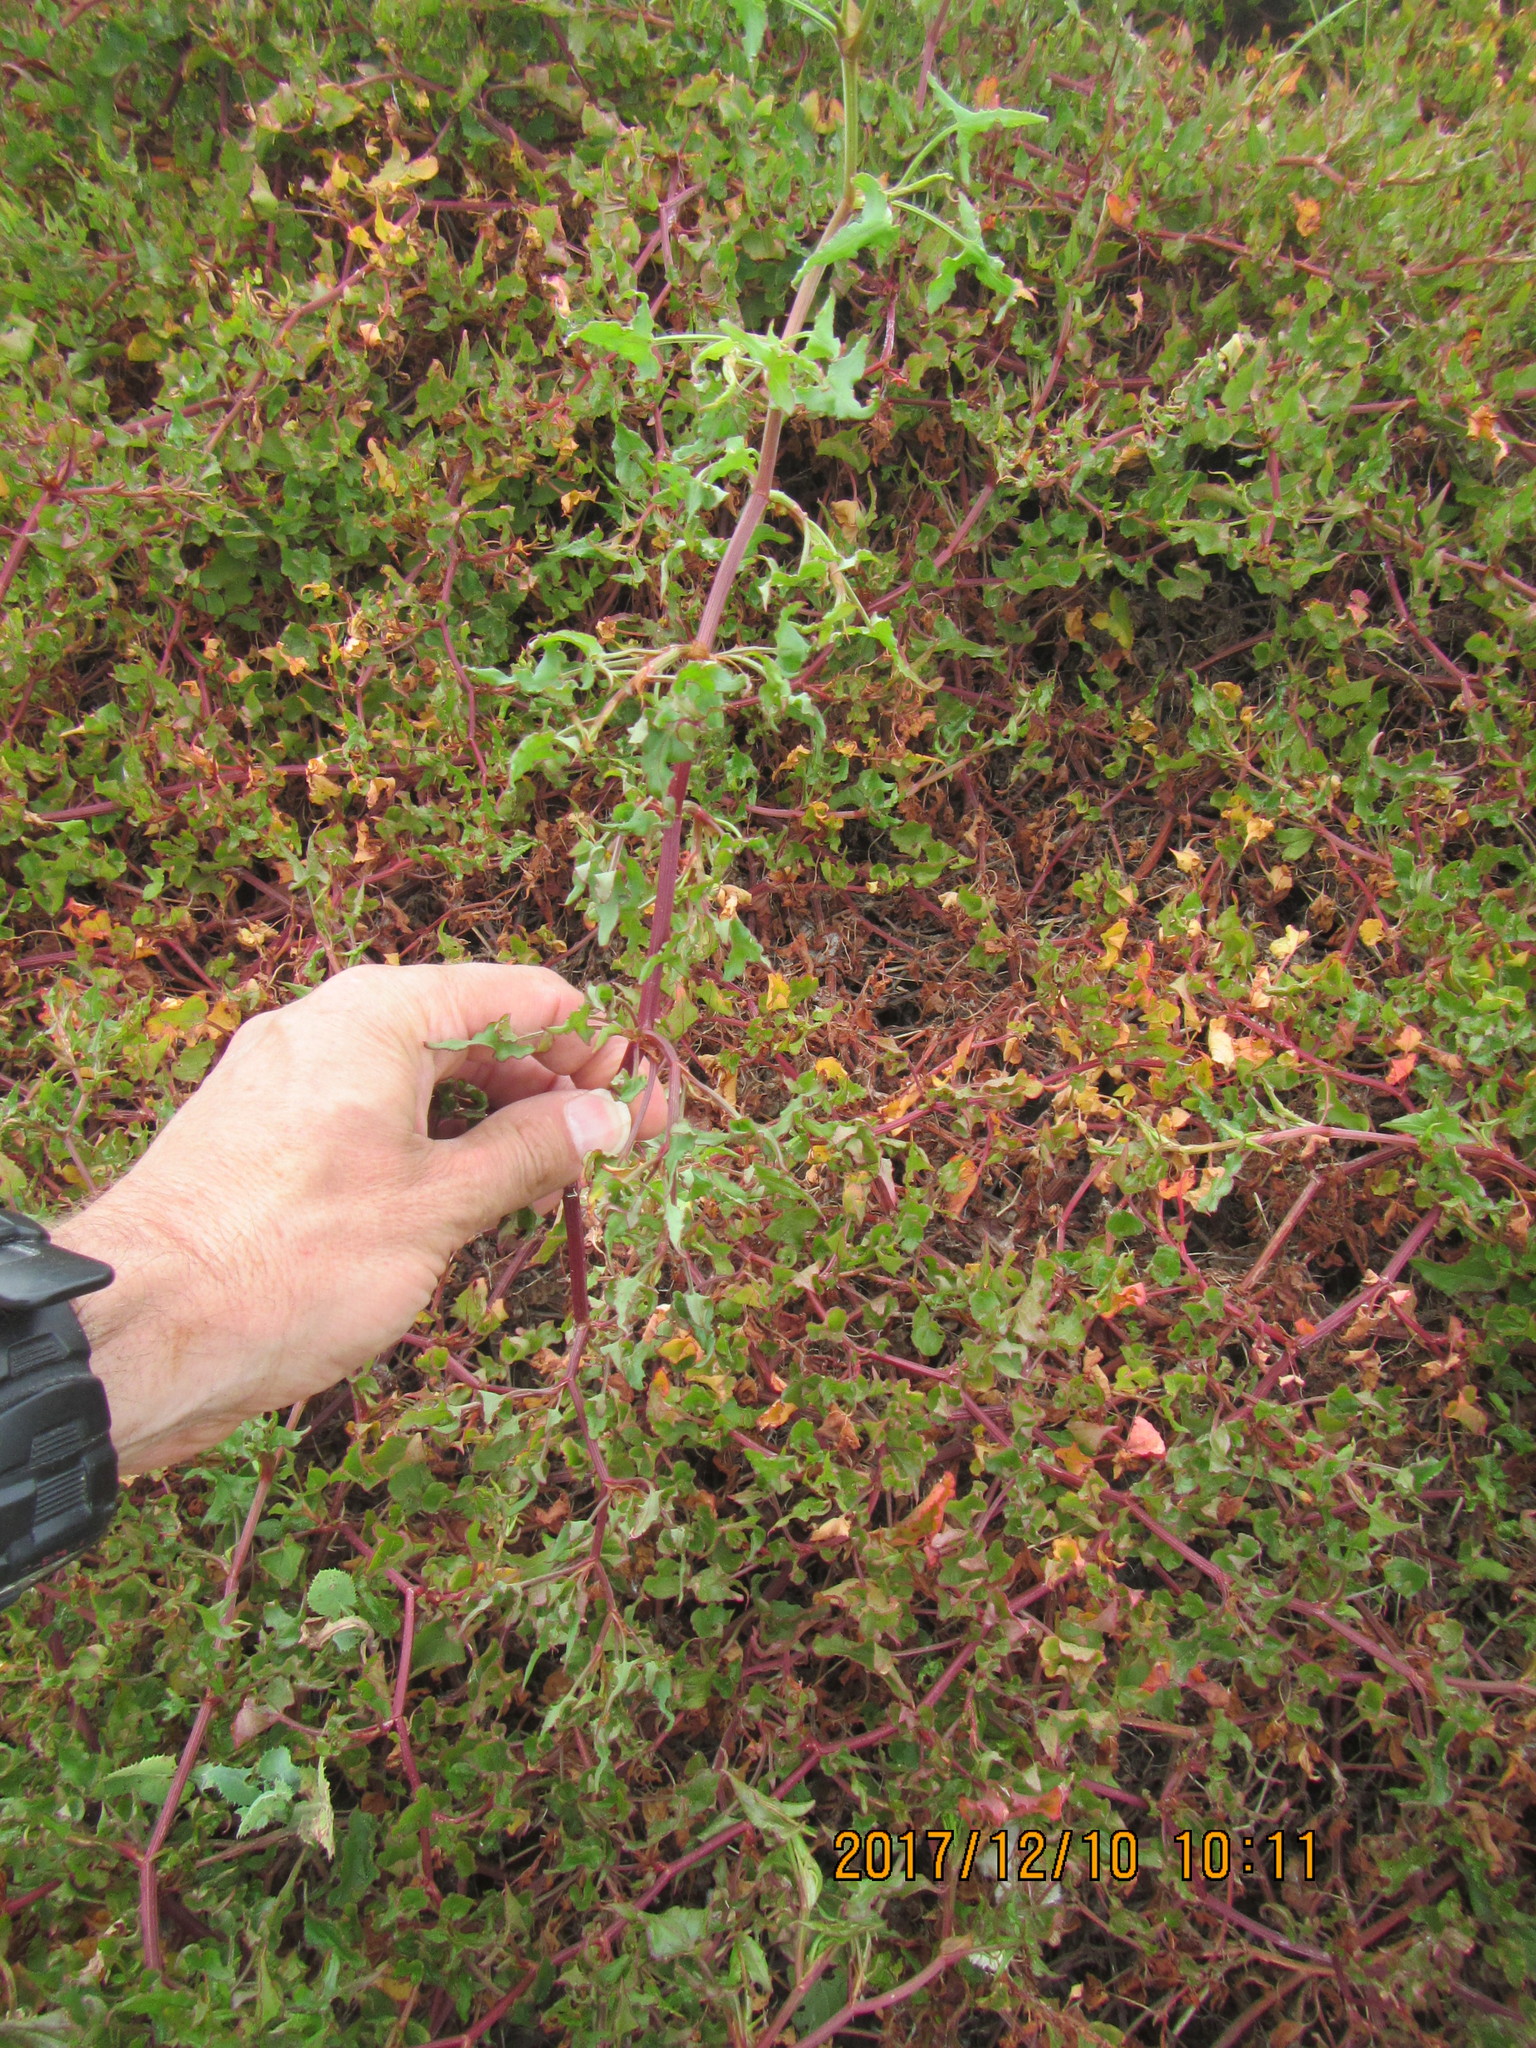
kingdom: Plantae
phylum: Tracheophyta
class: Magnoliopsida
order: Caryophyllales
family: Polygonaceae
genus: Rumex
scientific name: Rumex sagittatus
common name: Climbing dock
